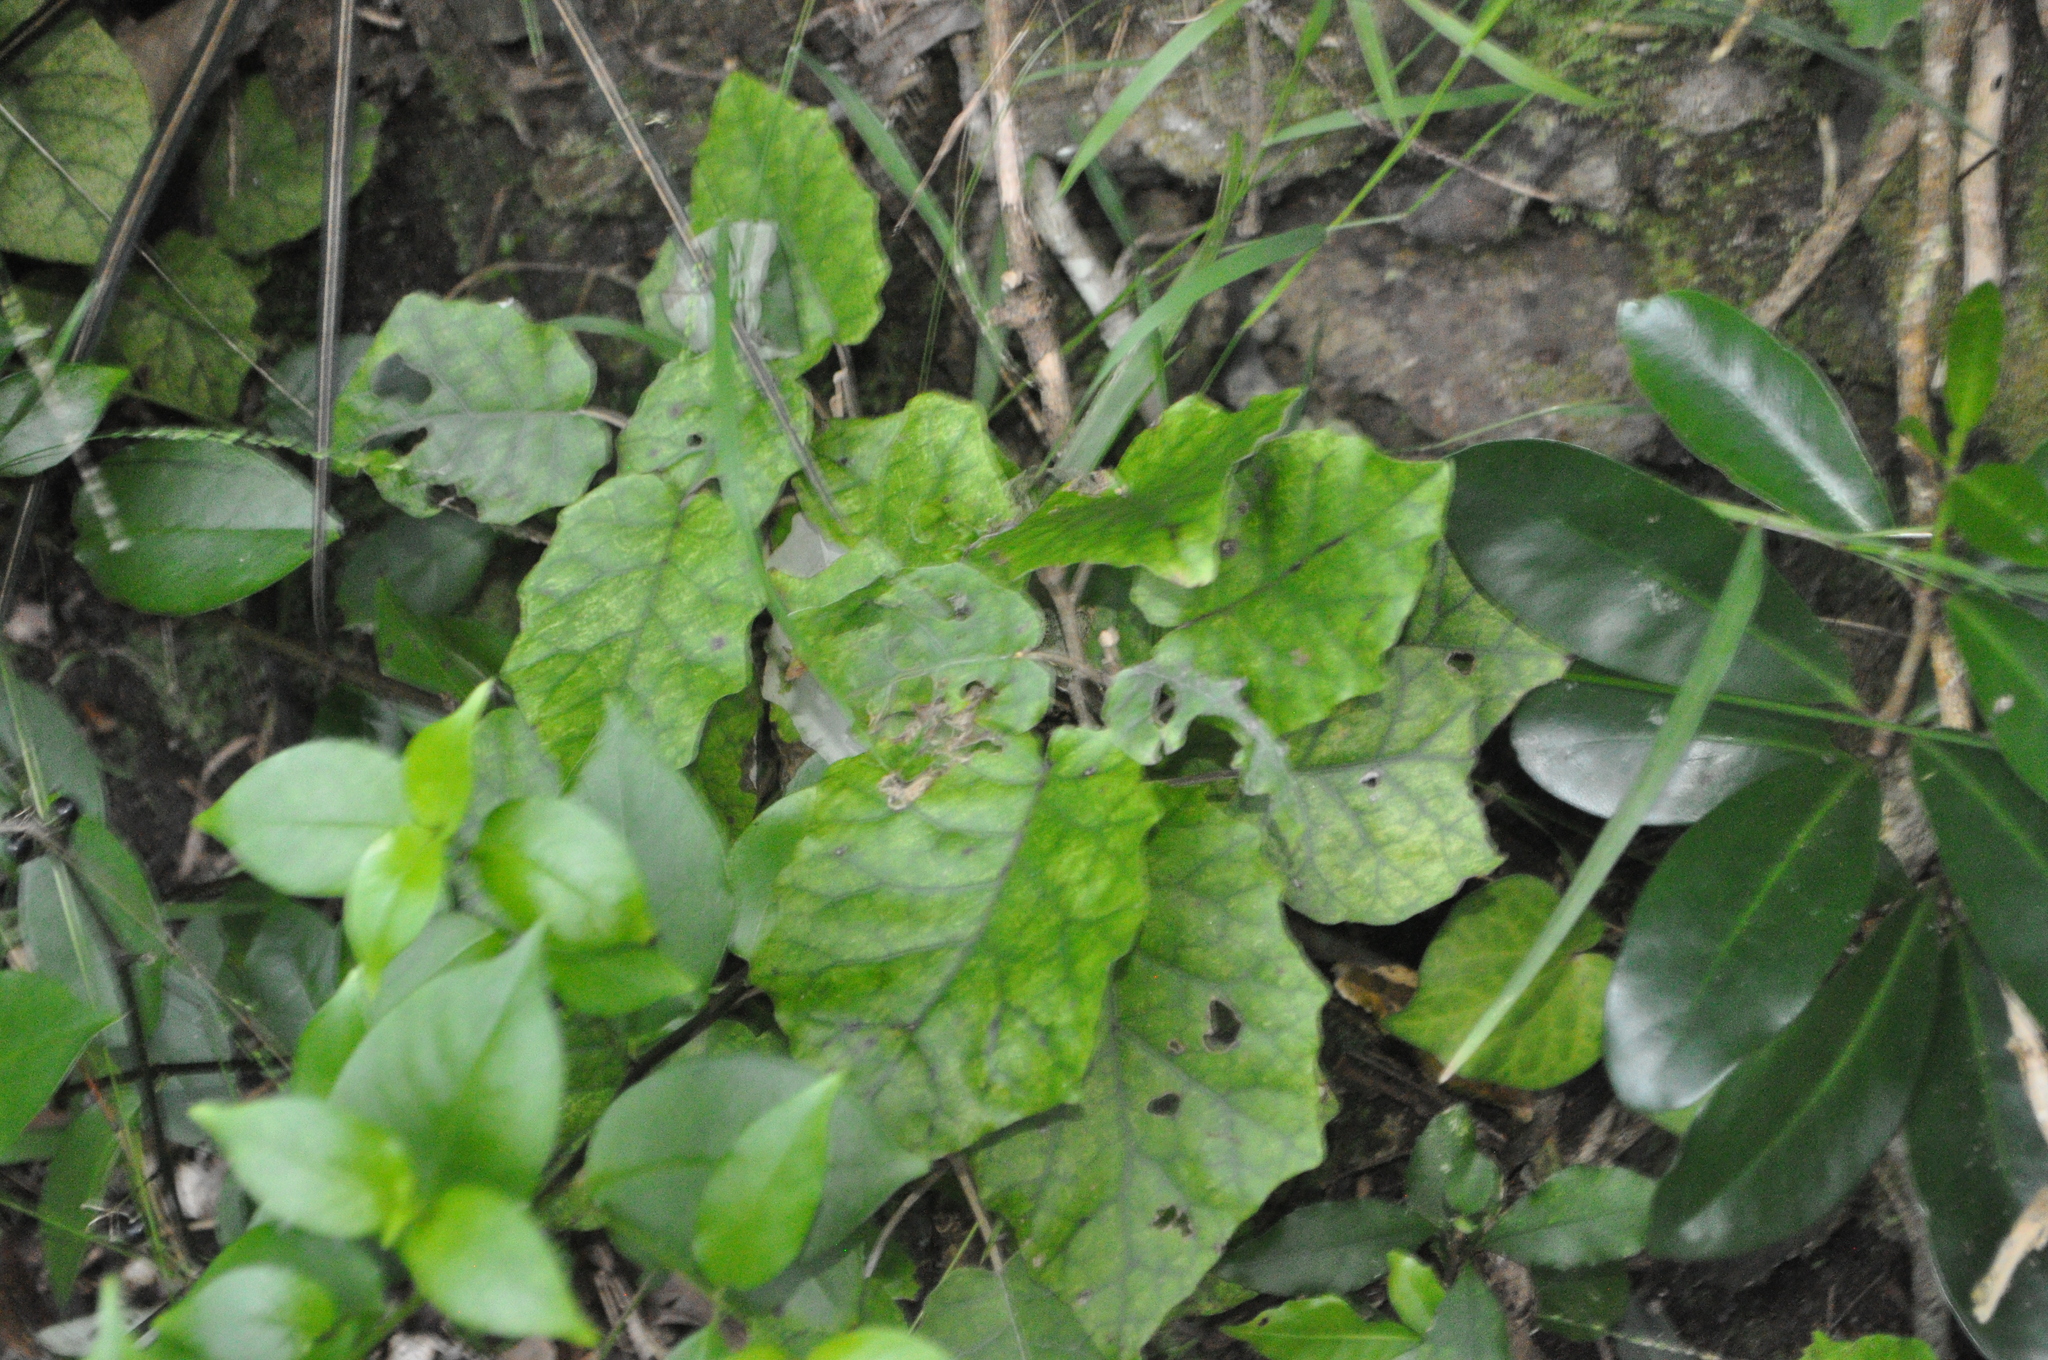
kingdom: Plantae
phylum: Tracheophyta
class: Magnoliopsida
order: Asterales
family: Asteraceae
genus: Brachyglottis
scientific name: Brachyglottis repanda
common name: Hedge ragwort
